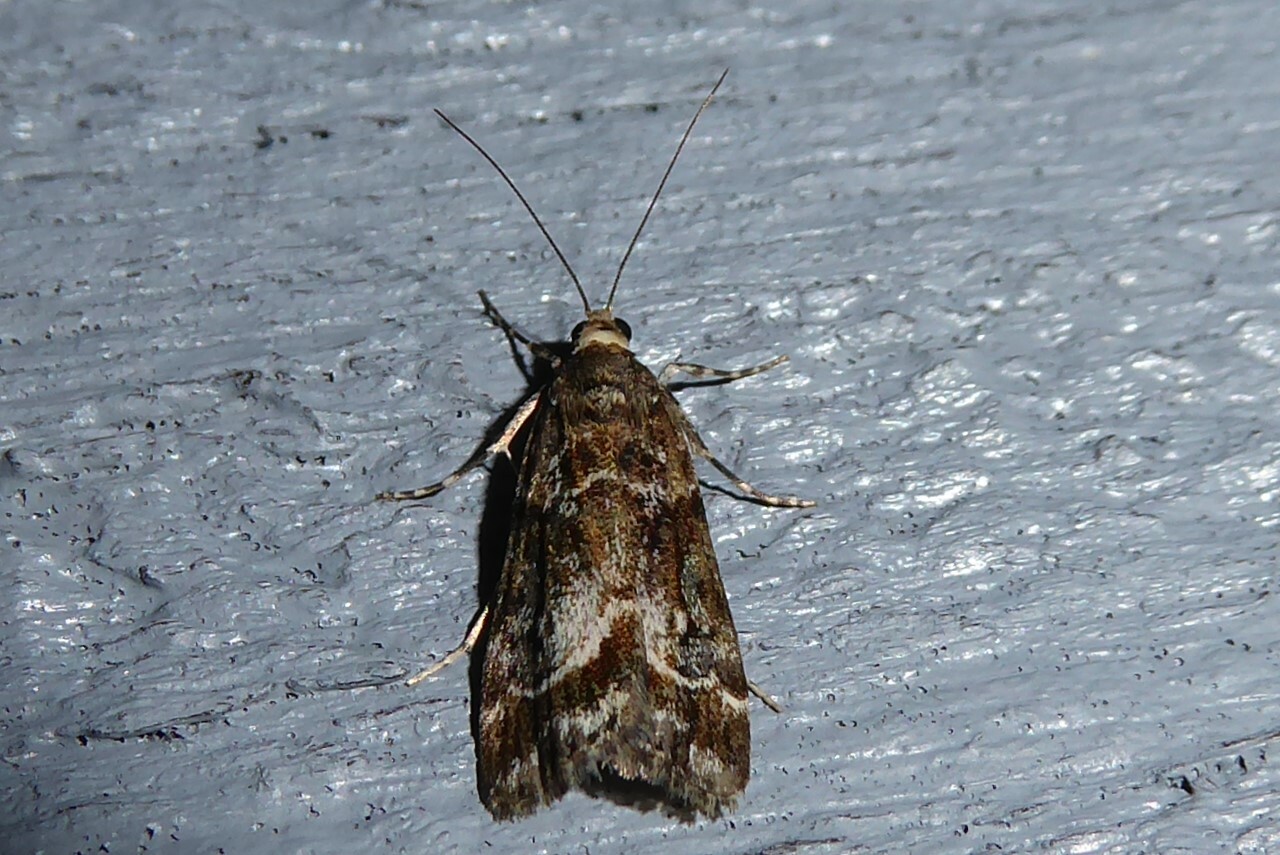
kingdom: Animalia
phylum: Arthropoda
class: Insecta
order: Lepidoptera
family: Crambidae
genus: Eudonia
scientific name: Eudonia legnota
